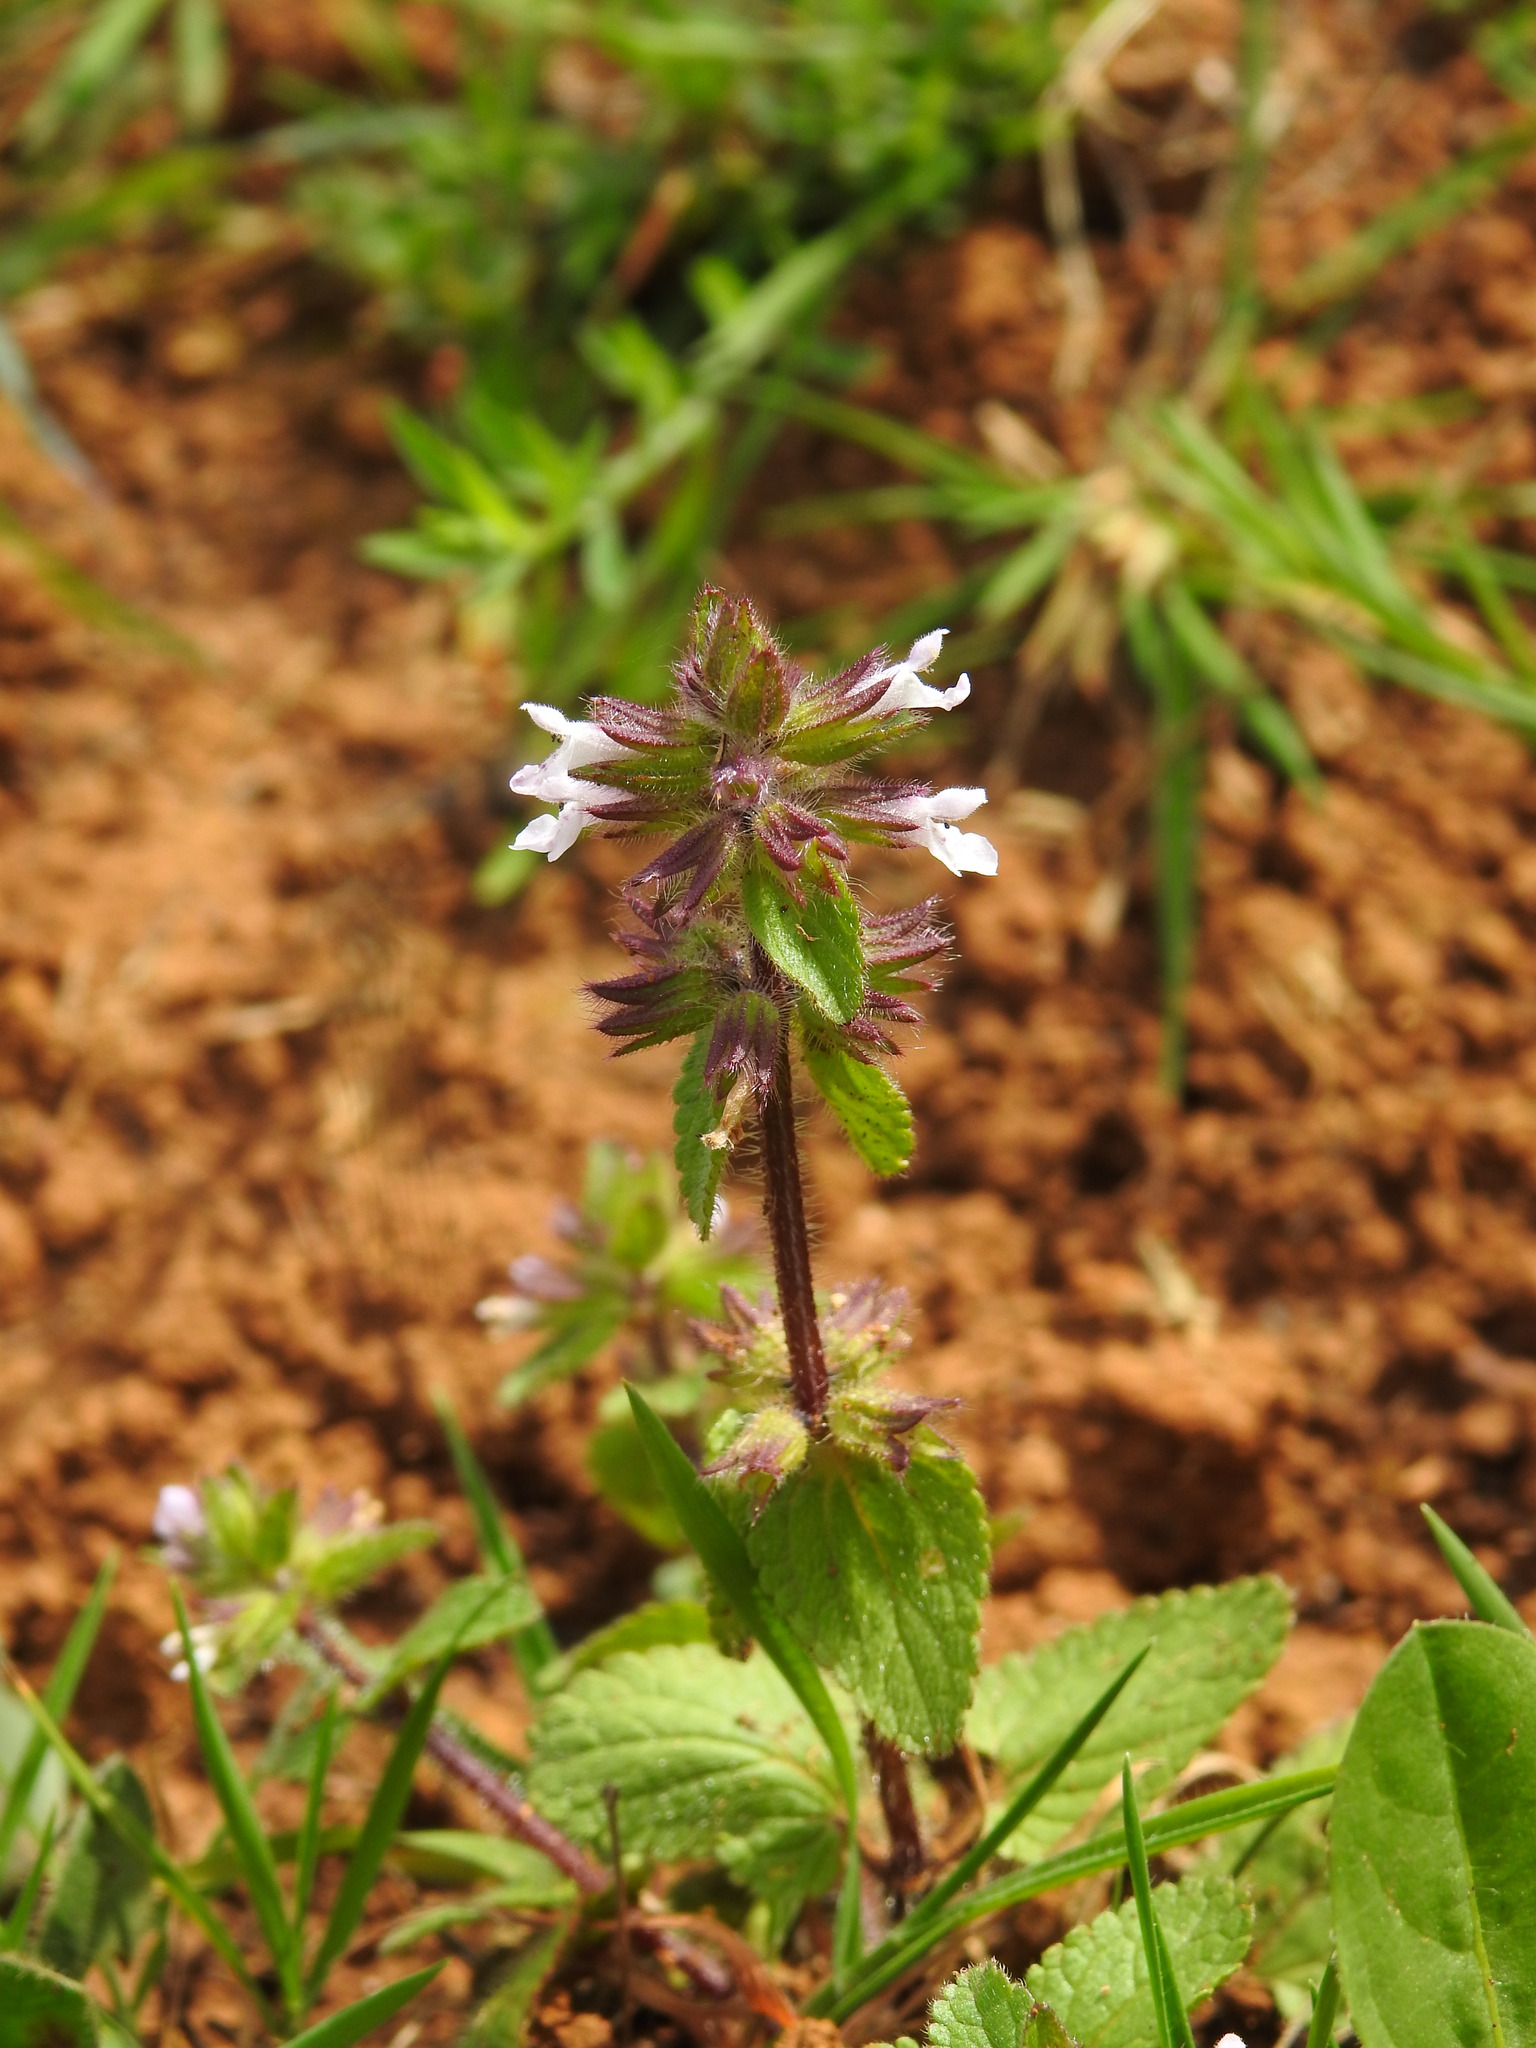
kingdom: Plantae
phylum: Tracheophyta
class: Magnoliopsida
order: Lamiales
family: Lamiaceae
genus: Stachys
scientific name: Stachys arvensis
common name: Field woundwort
